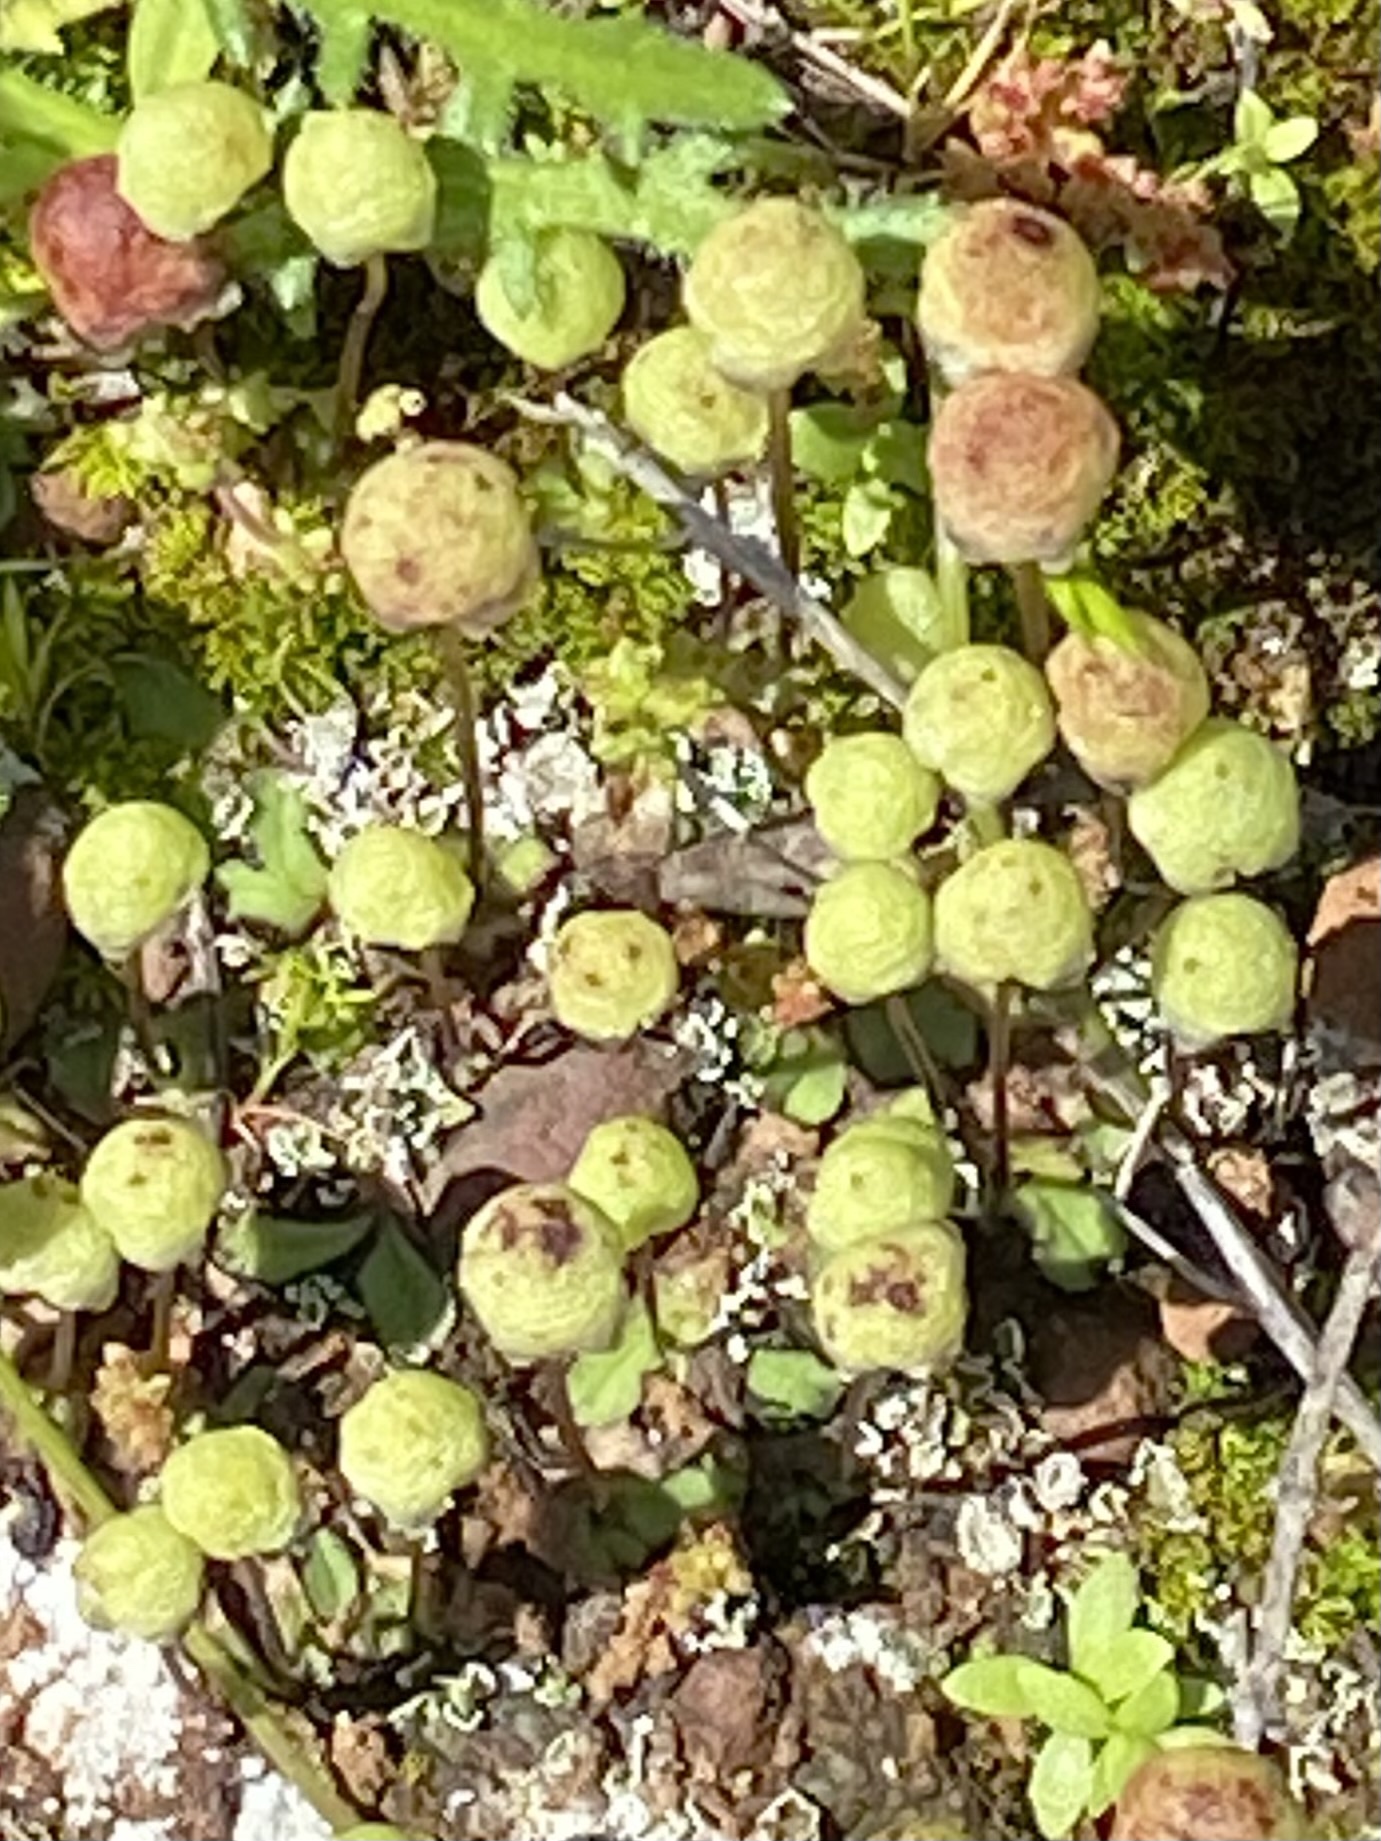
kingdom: Plantae
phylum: Marchantiophyta
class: Marchantiopsida
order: Marchantiales
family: Aytoniaceae
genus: Asterella
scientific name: Asterella palmeri
